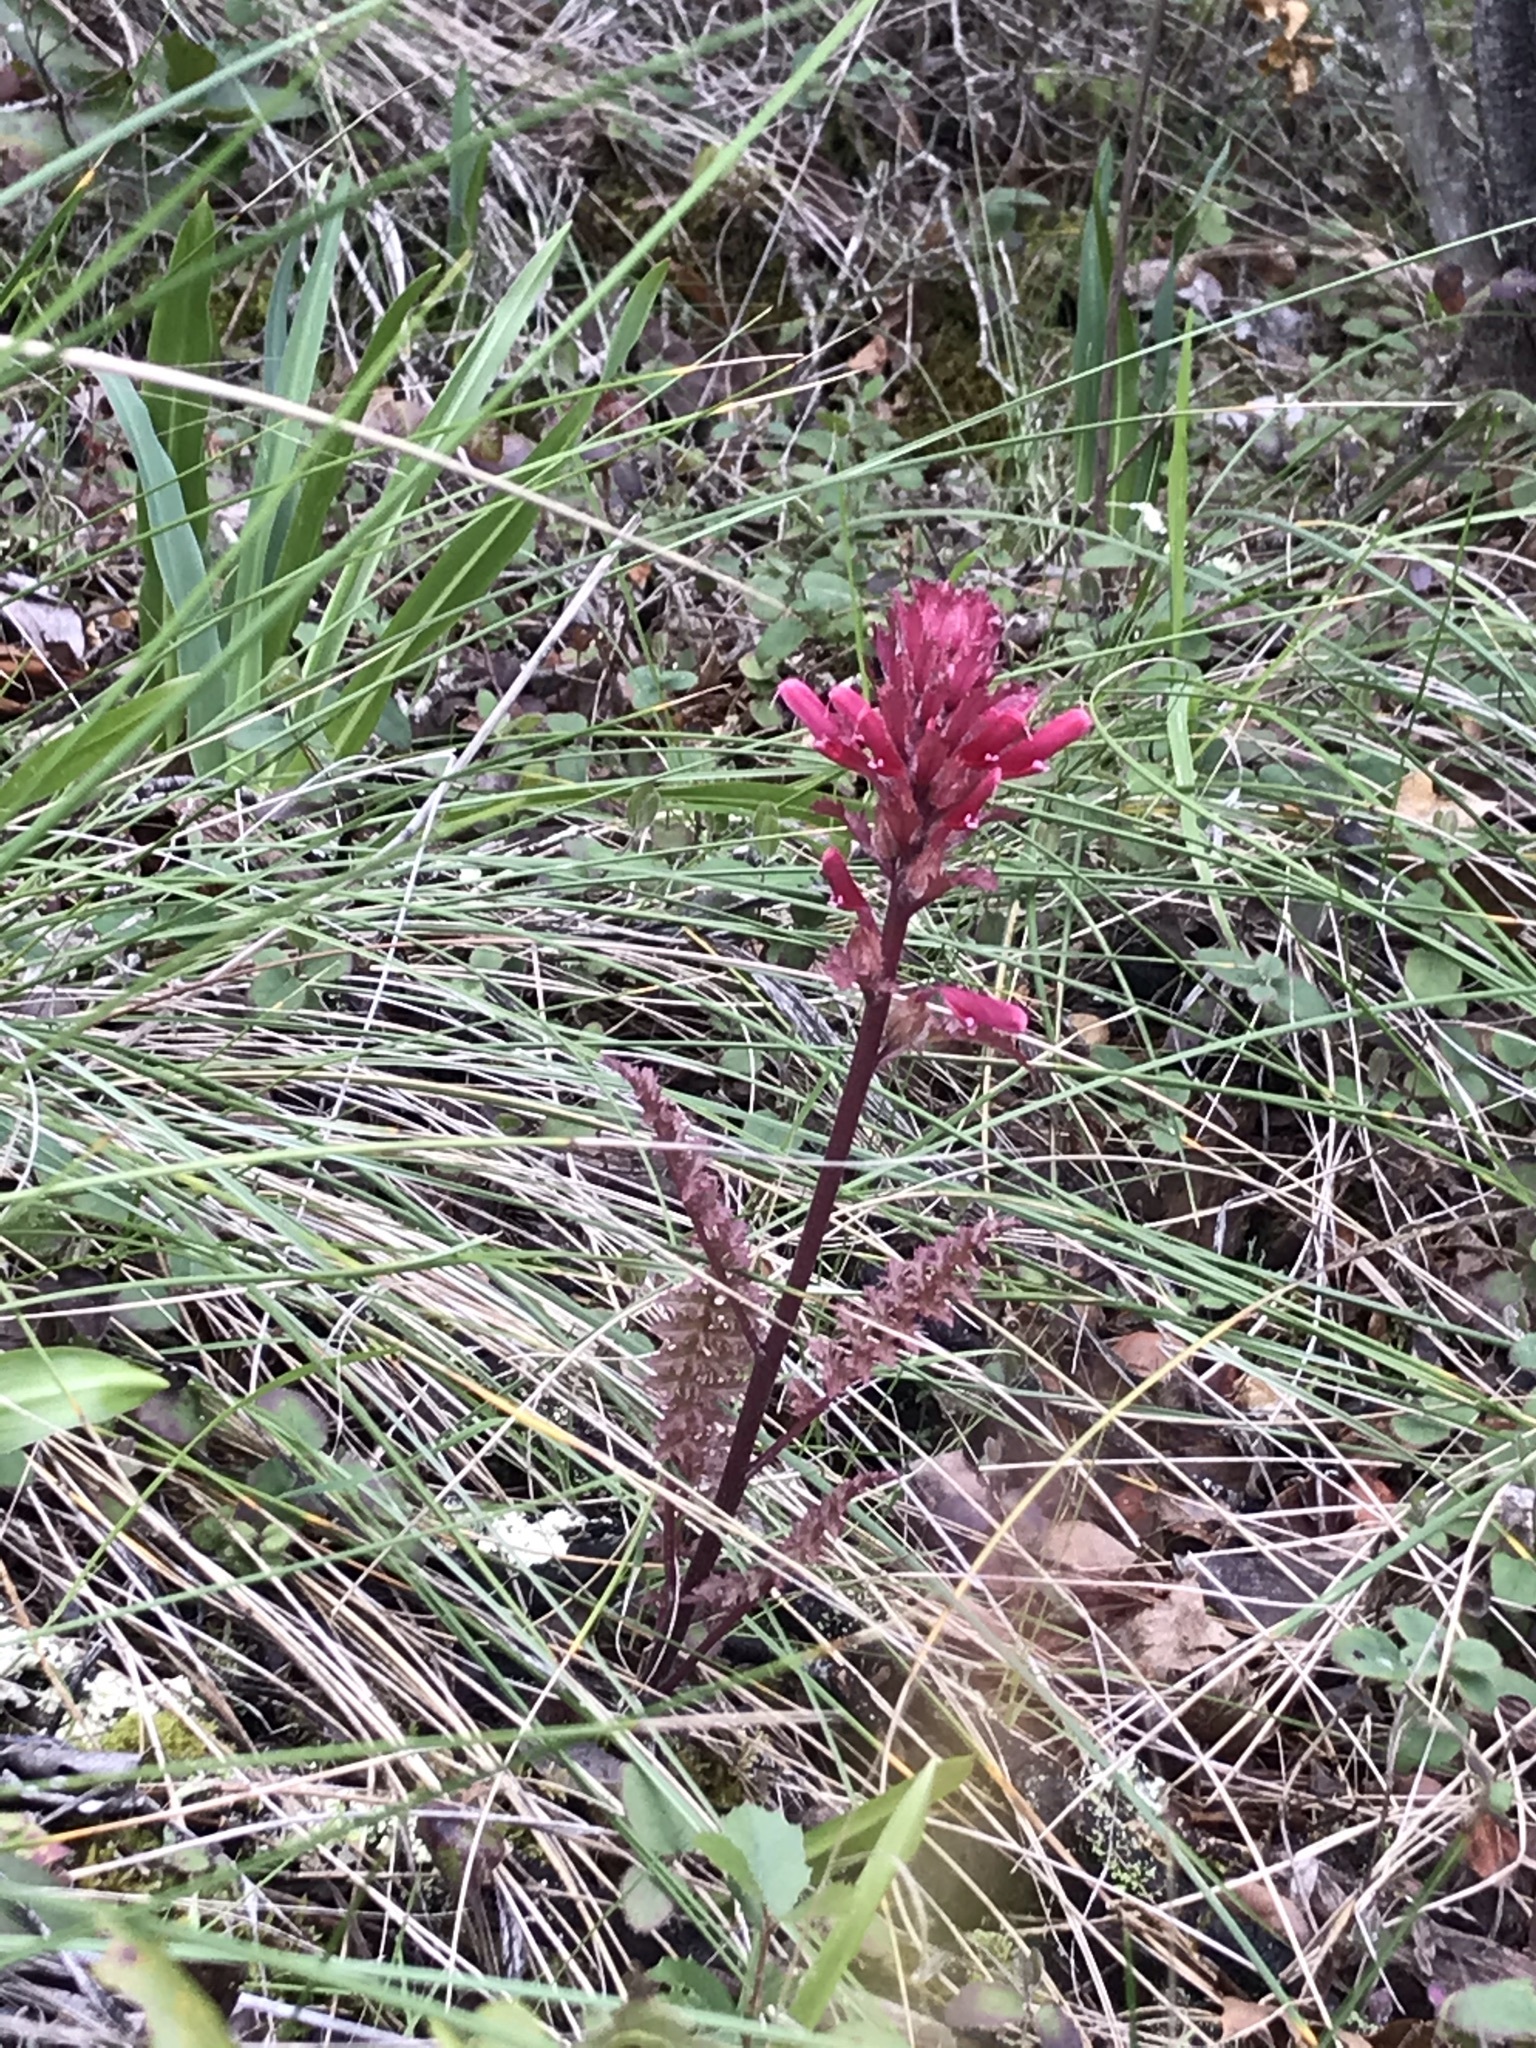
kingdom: Plantae
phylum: Tracheophyta
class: Magnoliopsida
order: Lamiales
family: Orobanchaceae
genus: Pedicularis
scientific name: Pedicularis densiflora
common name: Indian warrior
